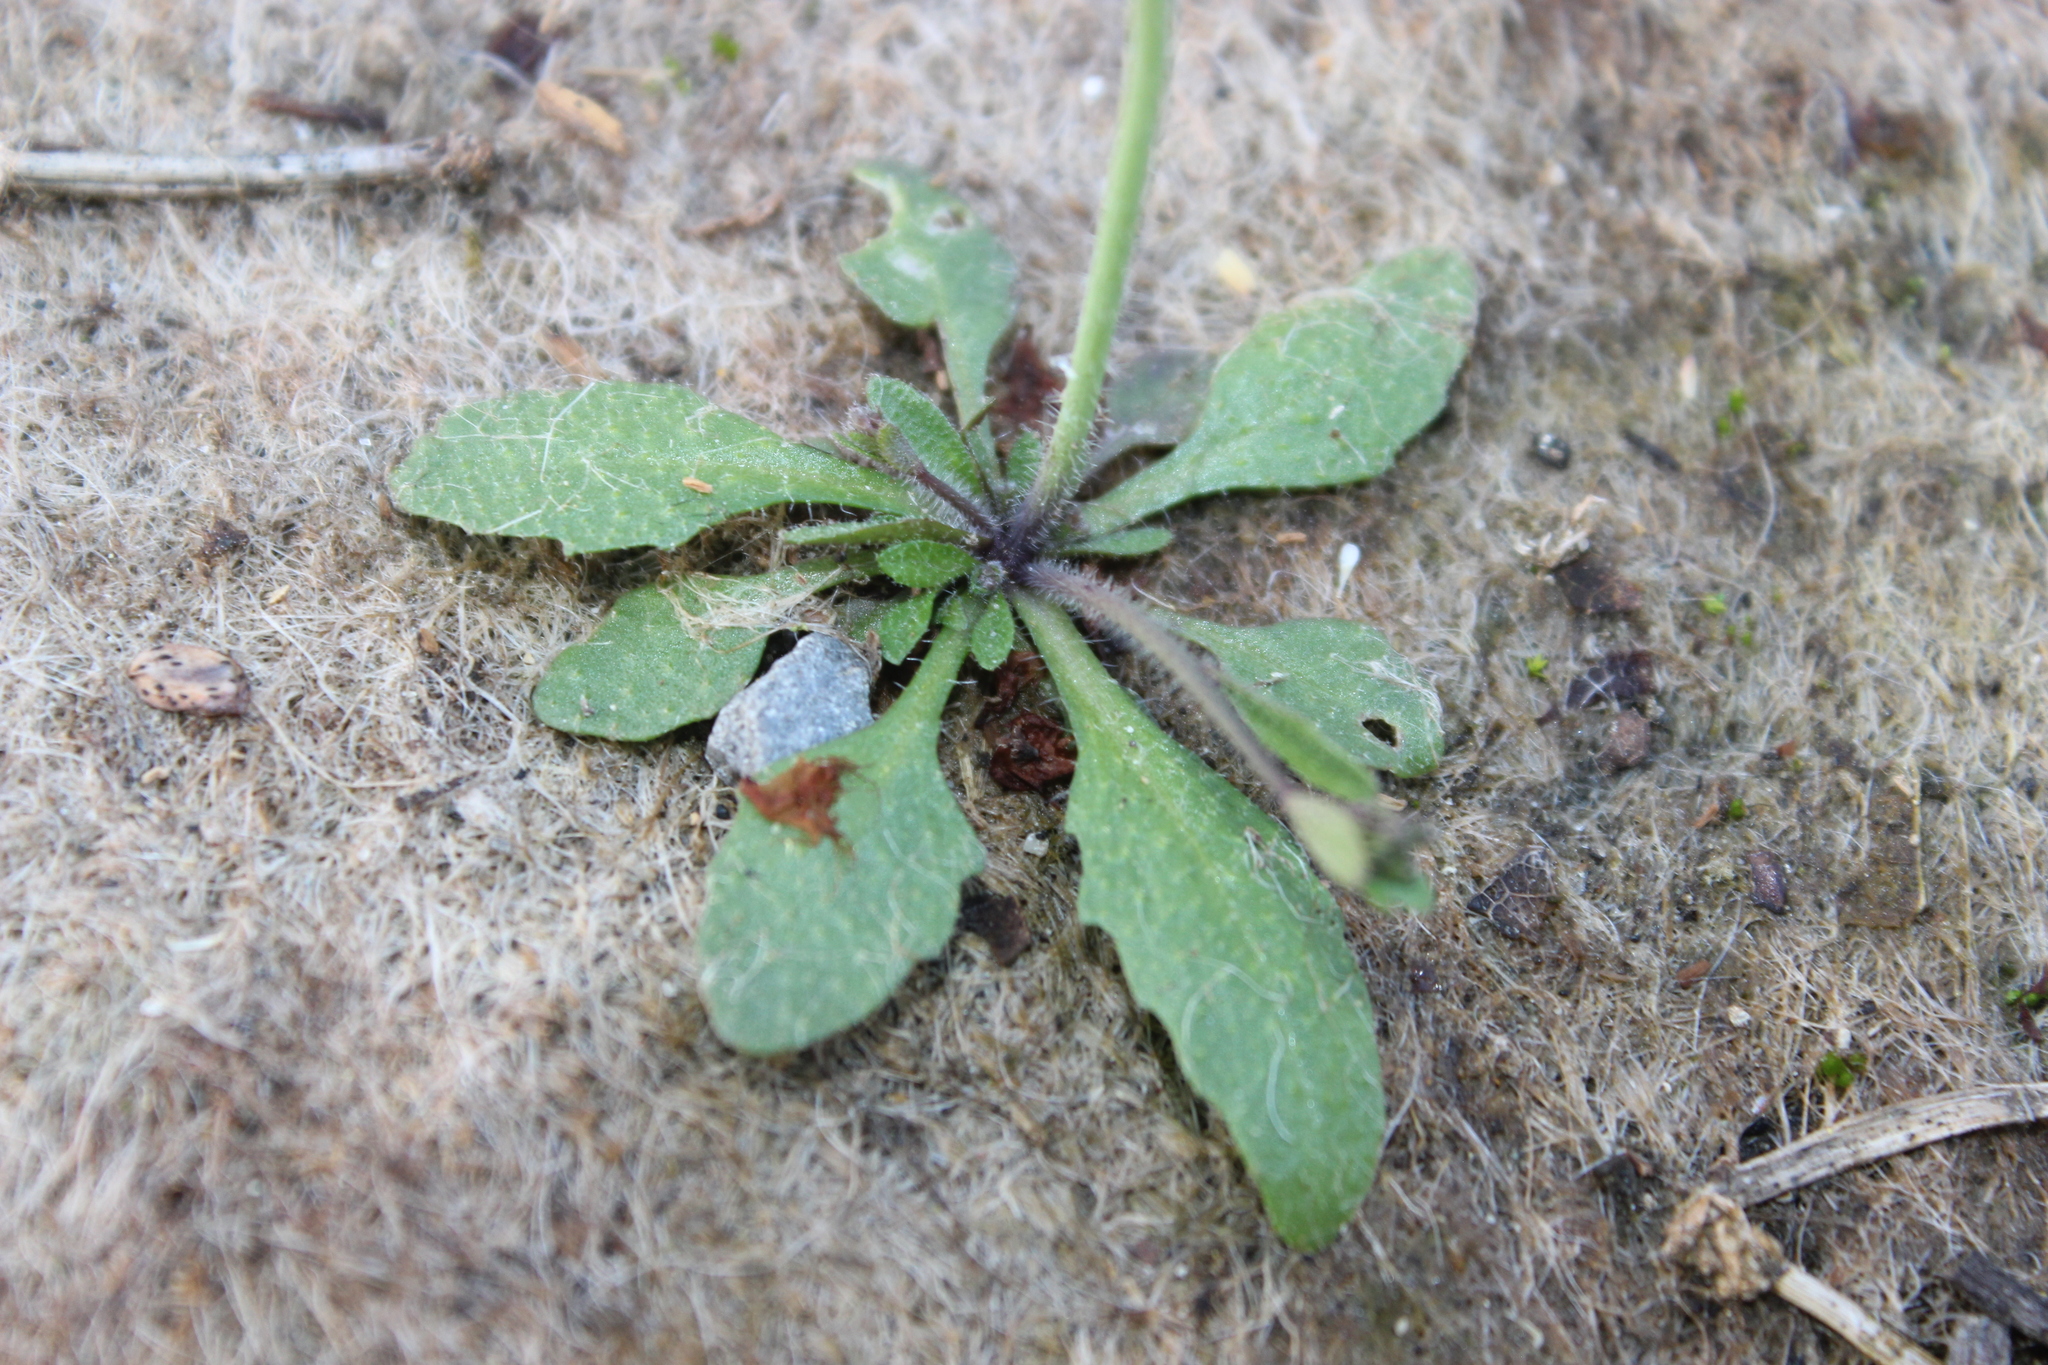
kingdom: Plantae
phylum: Tracheophyta
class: Magnoliopsida
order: Brassicales
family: Brassicaceae
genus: Arabidopsis
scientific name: Arabidopsis thaliana
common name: Thale cress
